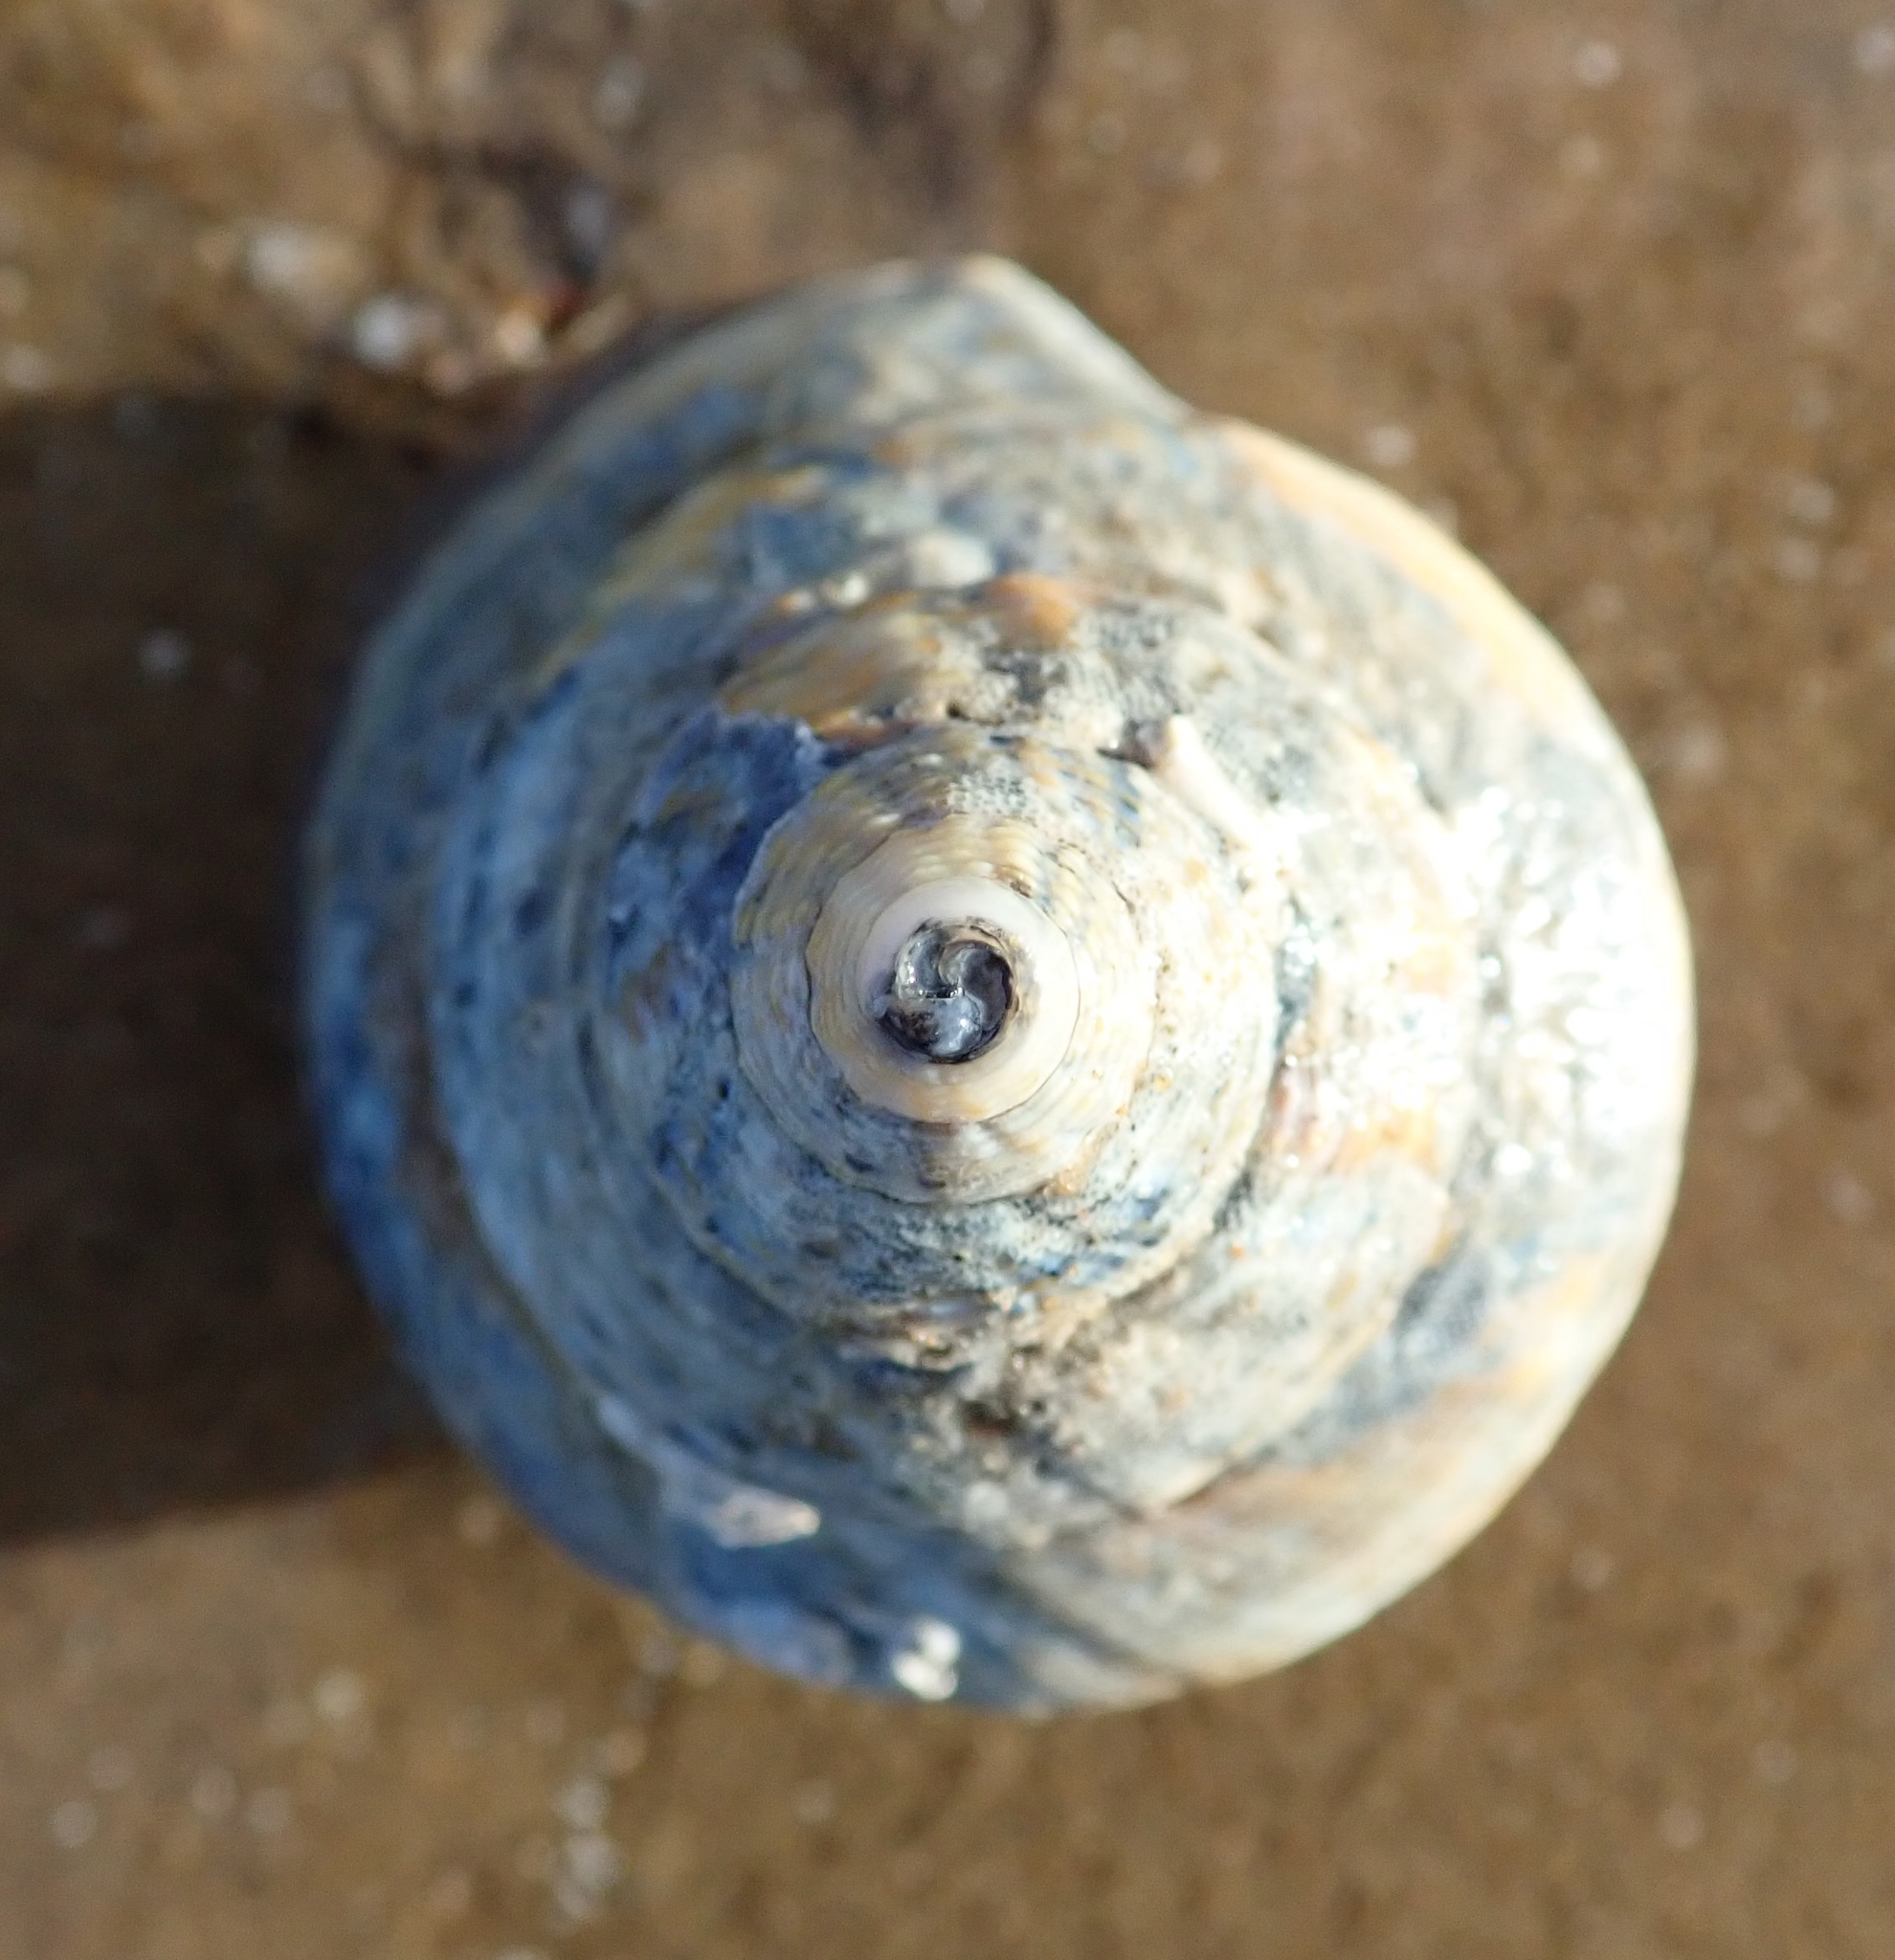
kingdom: Animalia
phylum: Mollusca
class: Gastropoda
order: Neogastropoda
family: Buccinidae
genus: Buccinum
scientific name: Buccinum undatum
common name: Common whelk
